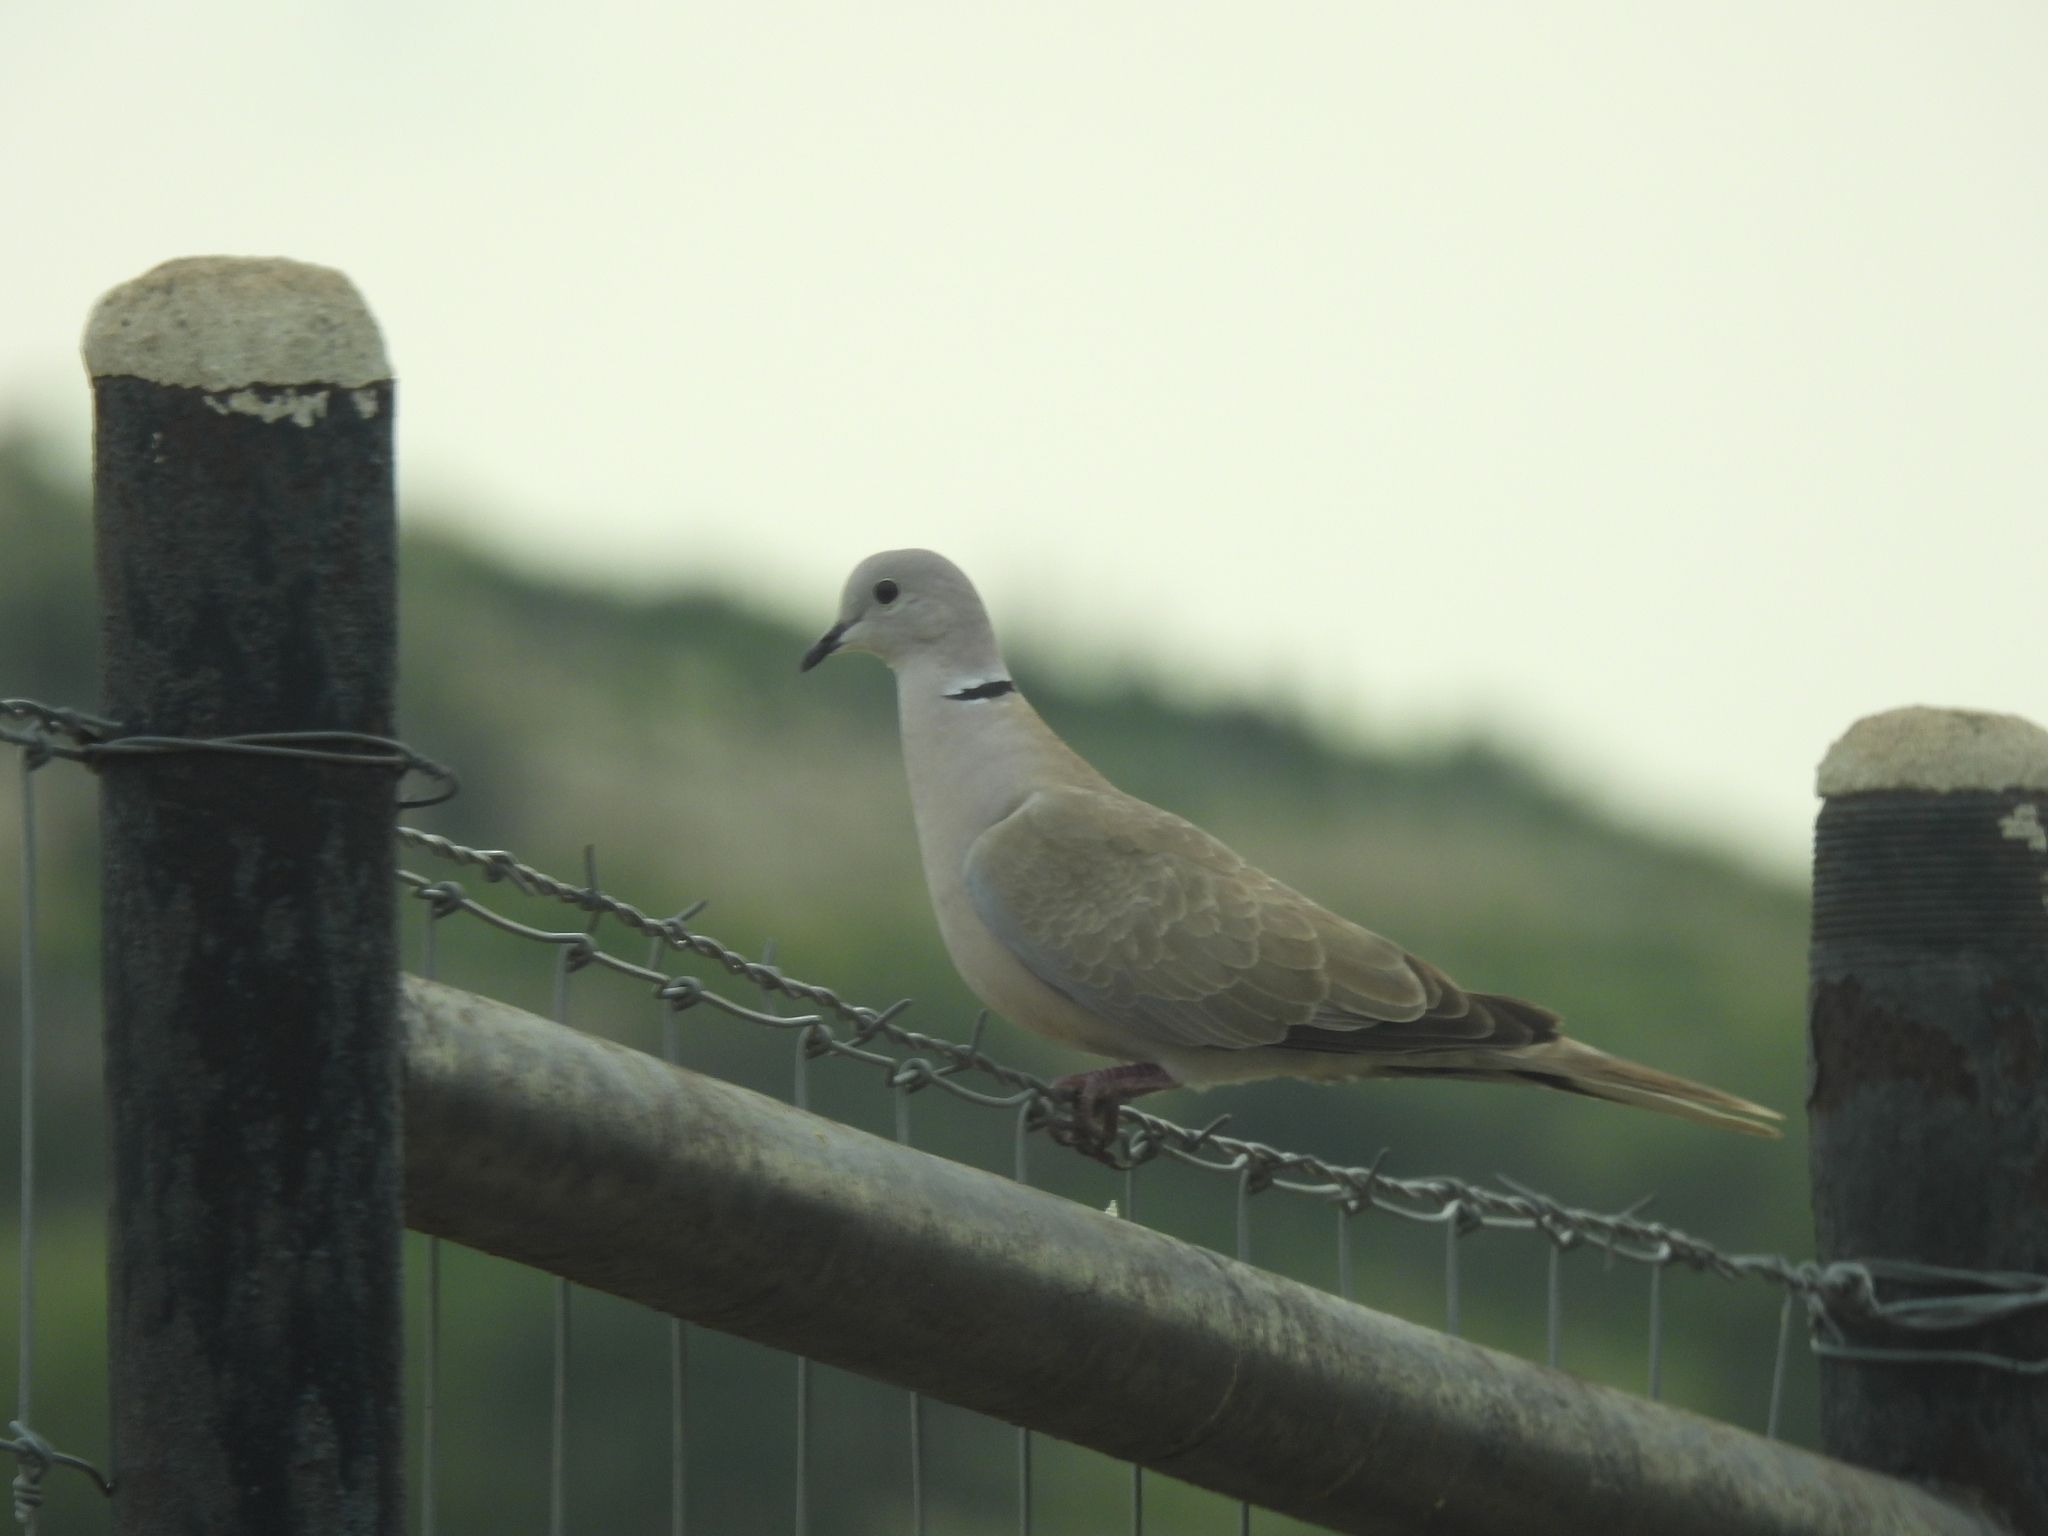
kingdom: Animalia
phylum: Chordata
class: Aves
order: Columbiformes
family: Columbidae
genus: Streptopelia
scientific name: Streptopelia decaocto
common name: Eurasian collared dove
